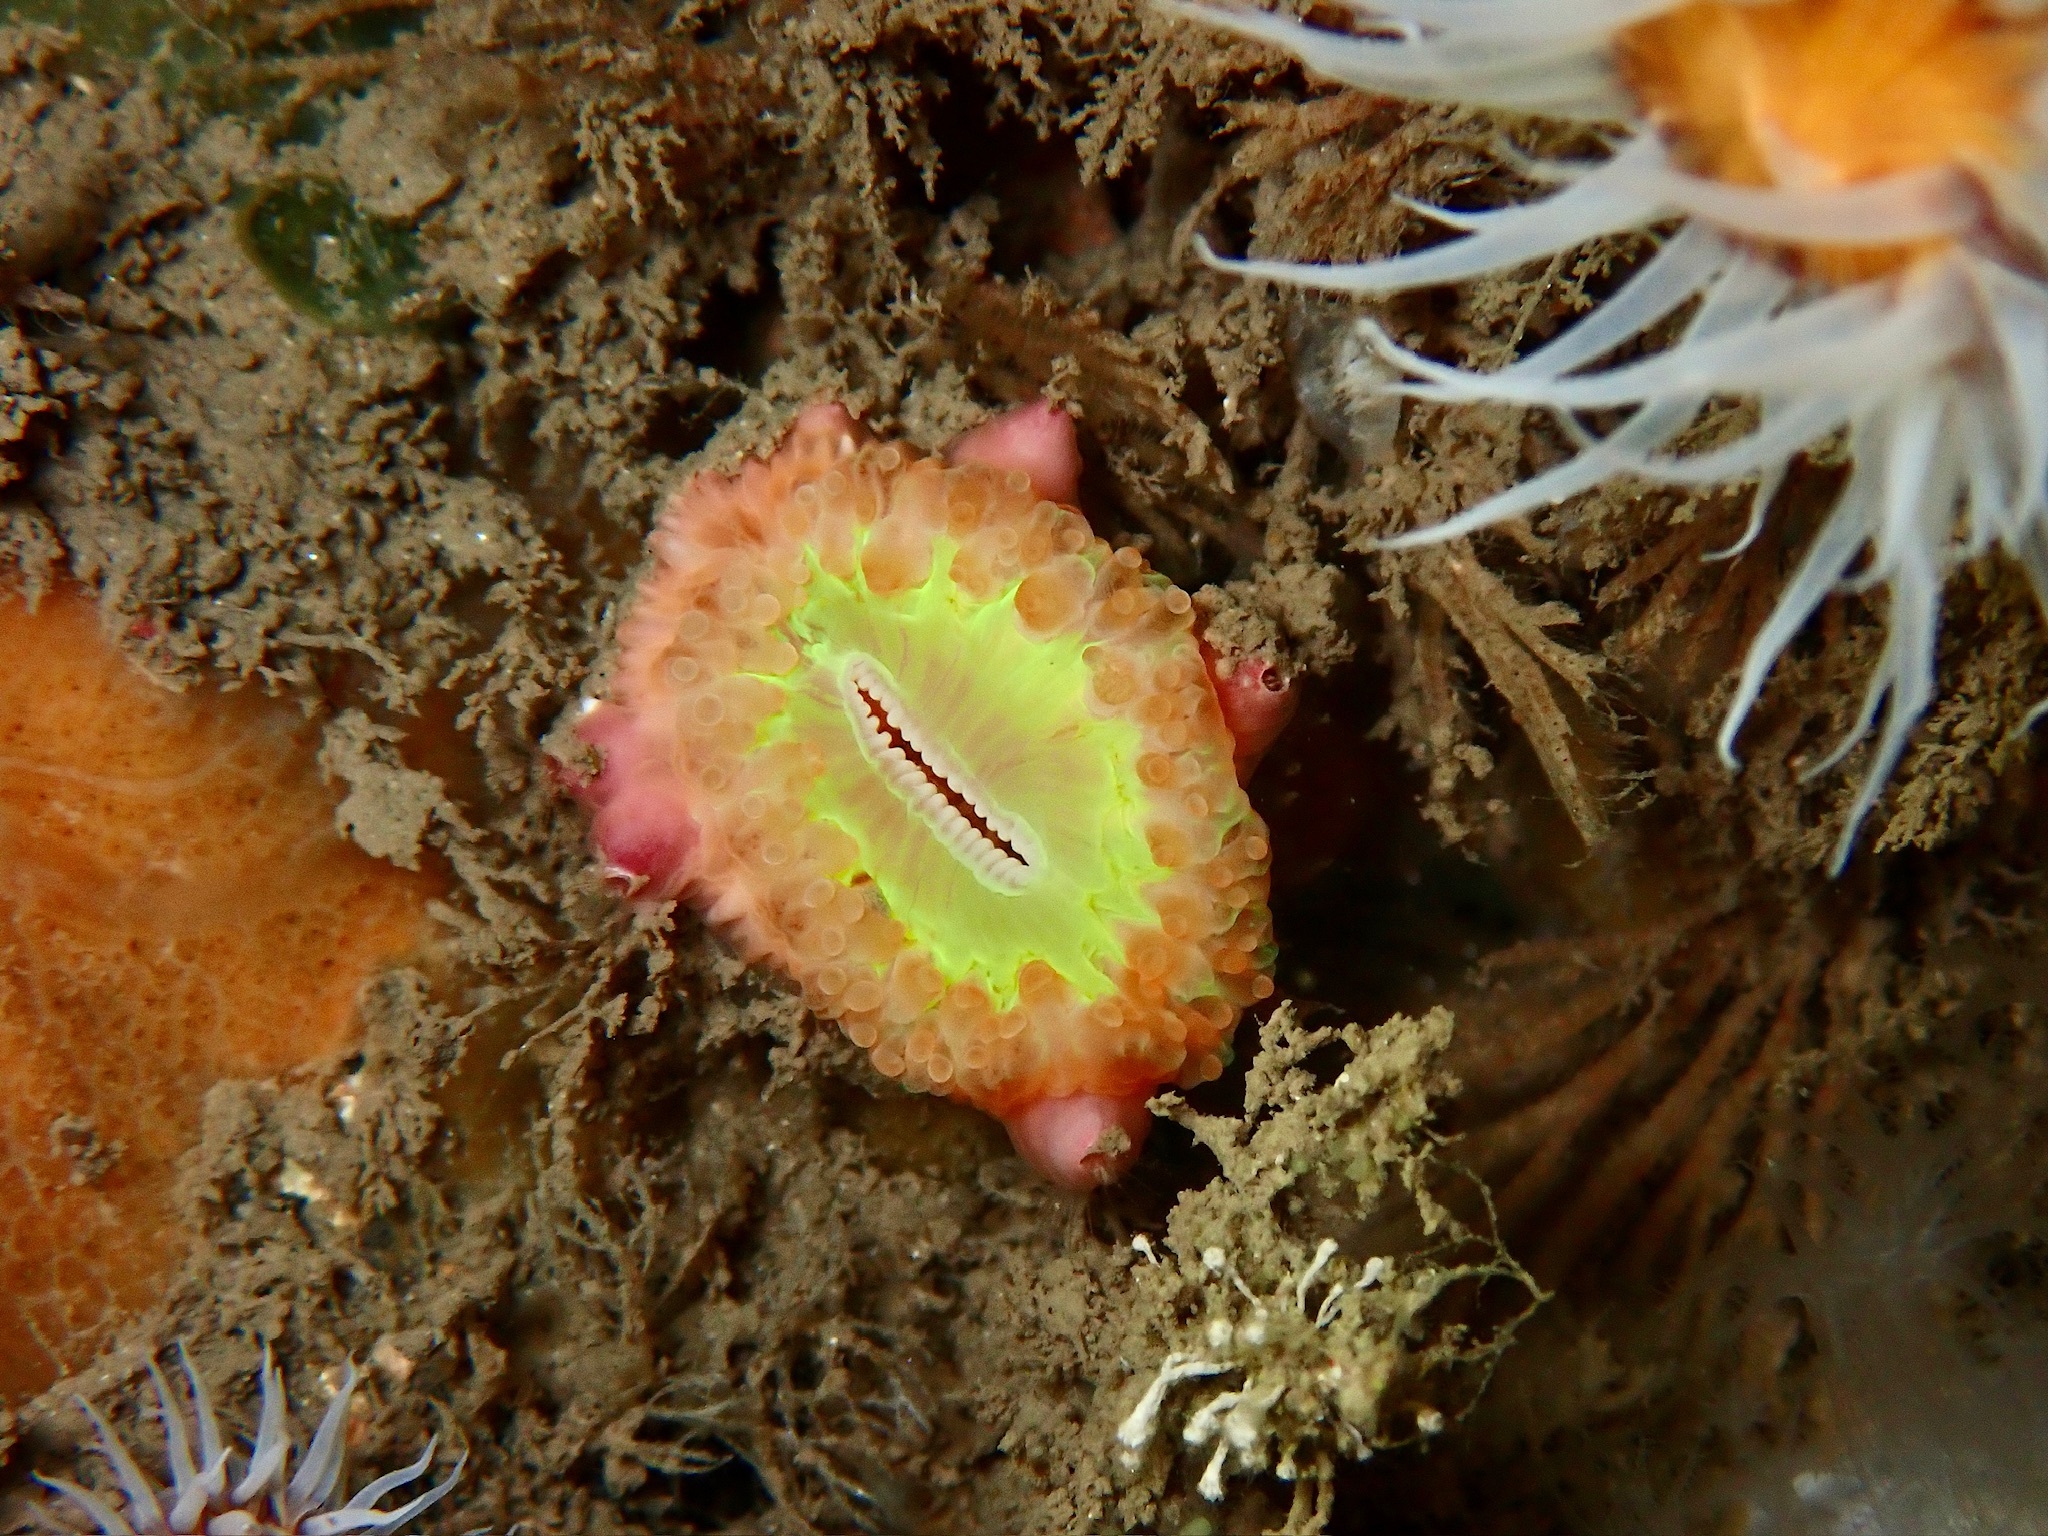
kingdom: Animalia
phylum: Arthropoda
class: Maxillopoda
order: Sessilia
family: Pyrgomatidae
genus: Adna
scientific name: Adna anglica
